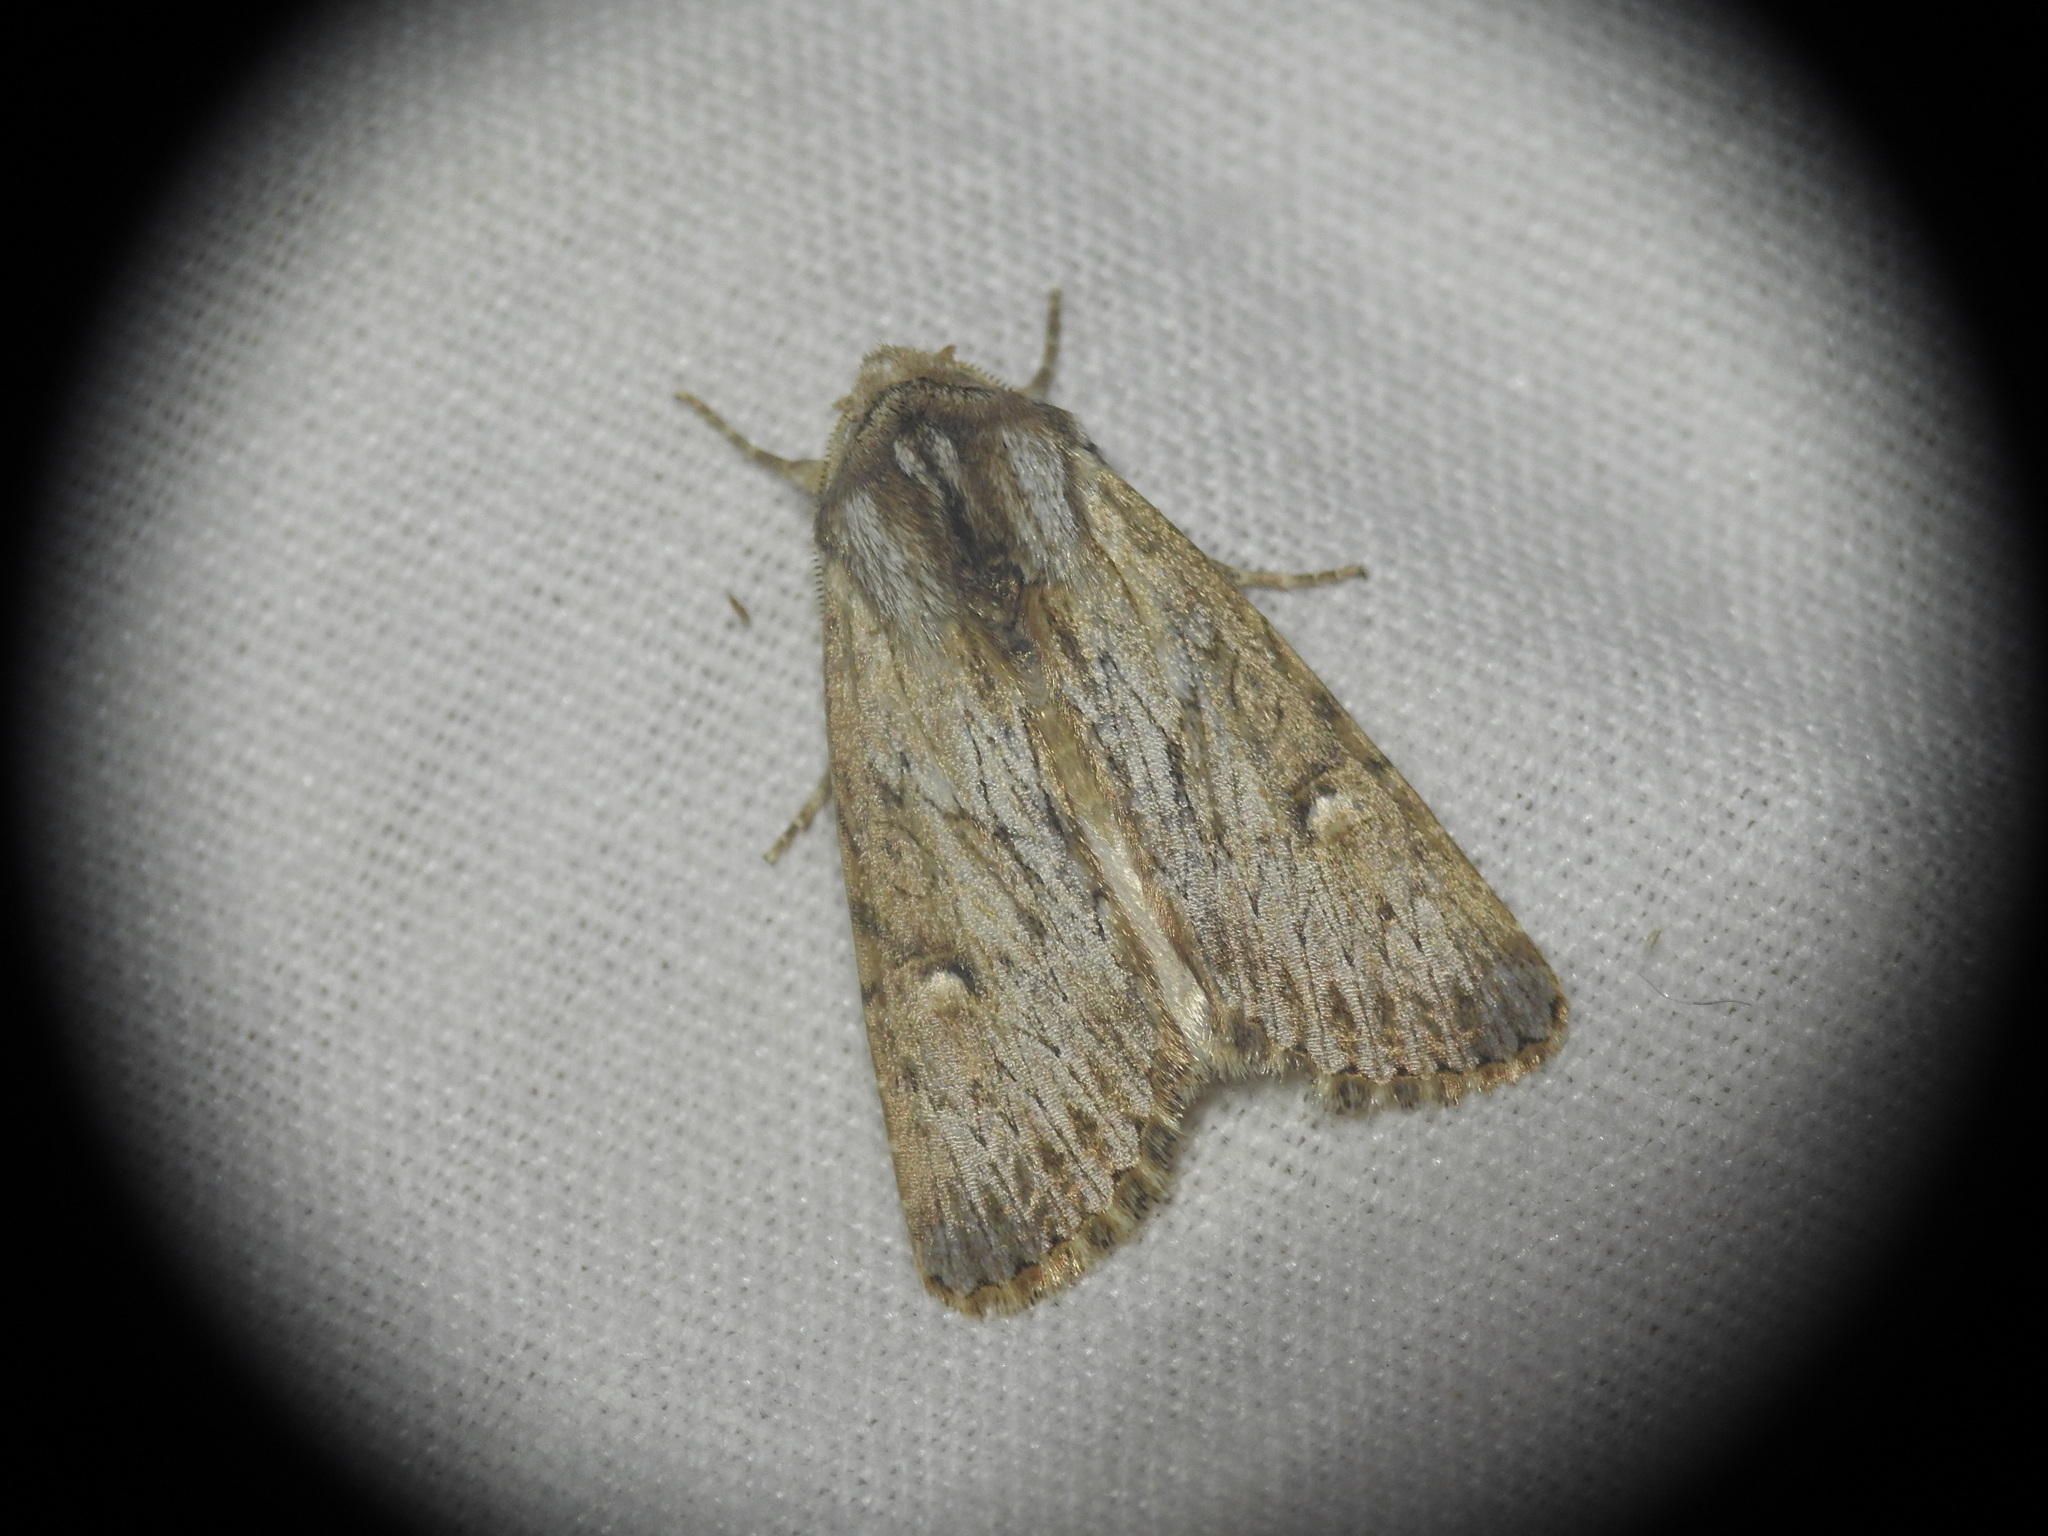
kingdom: Animalia
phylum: Arthropoda
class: Insecta
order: Lepidoptera
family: Noctuidae
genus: Aporophyla
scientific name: Aporophyla australis
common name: Feathered brindle
